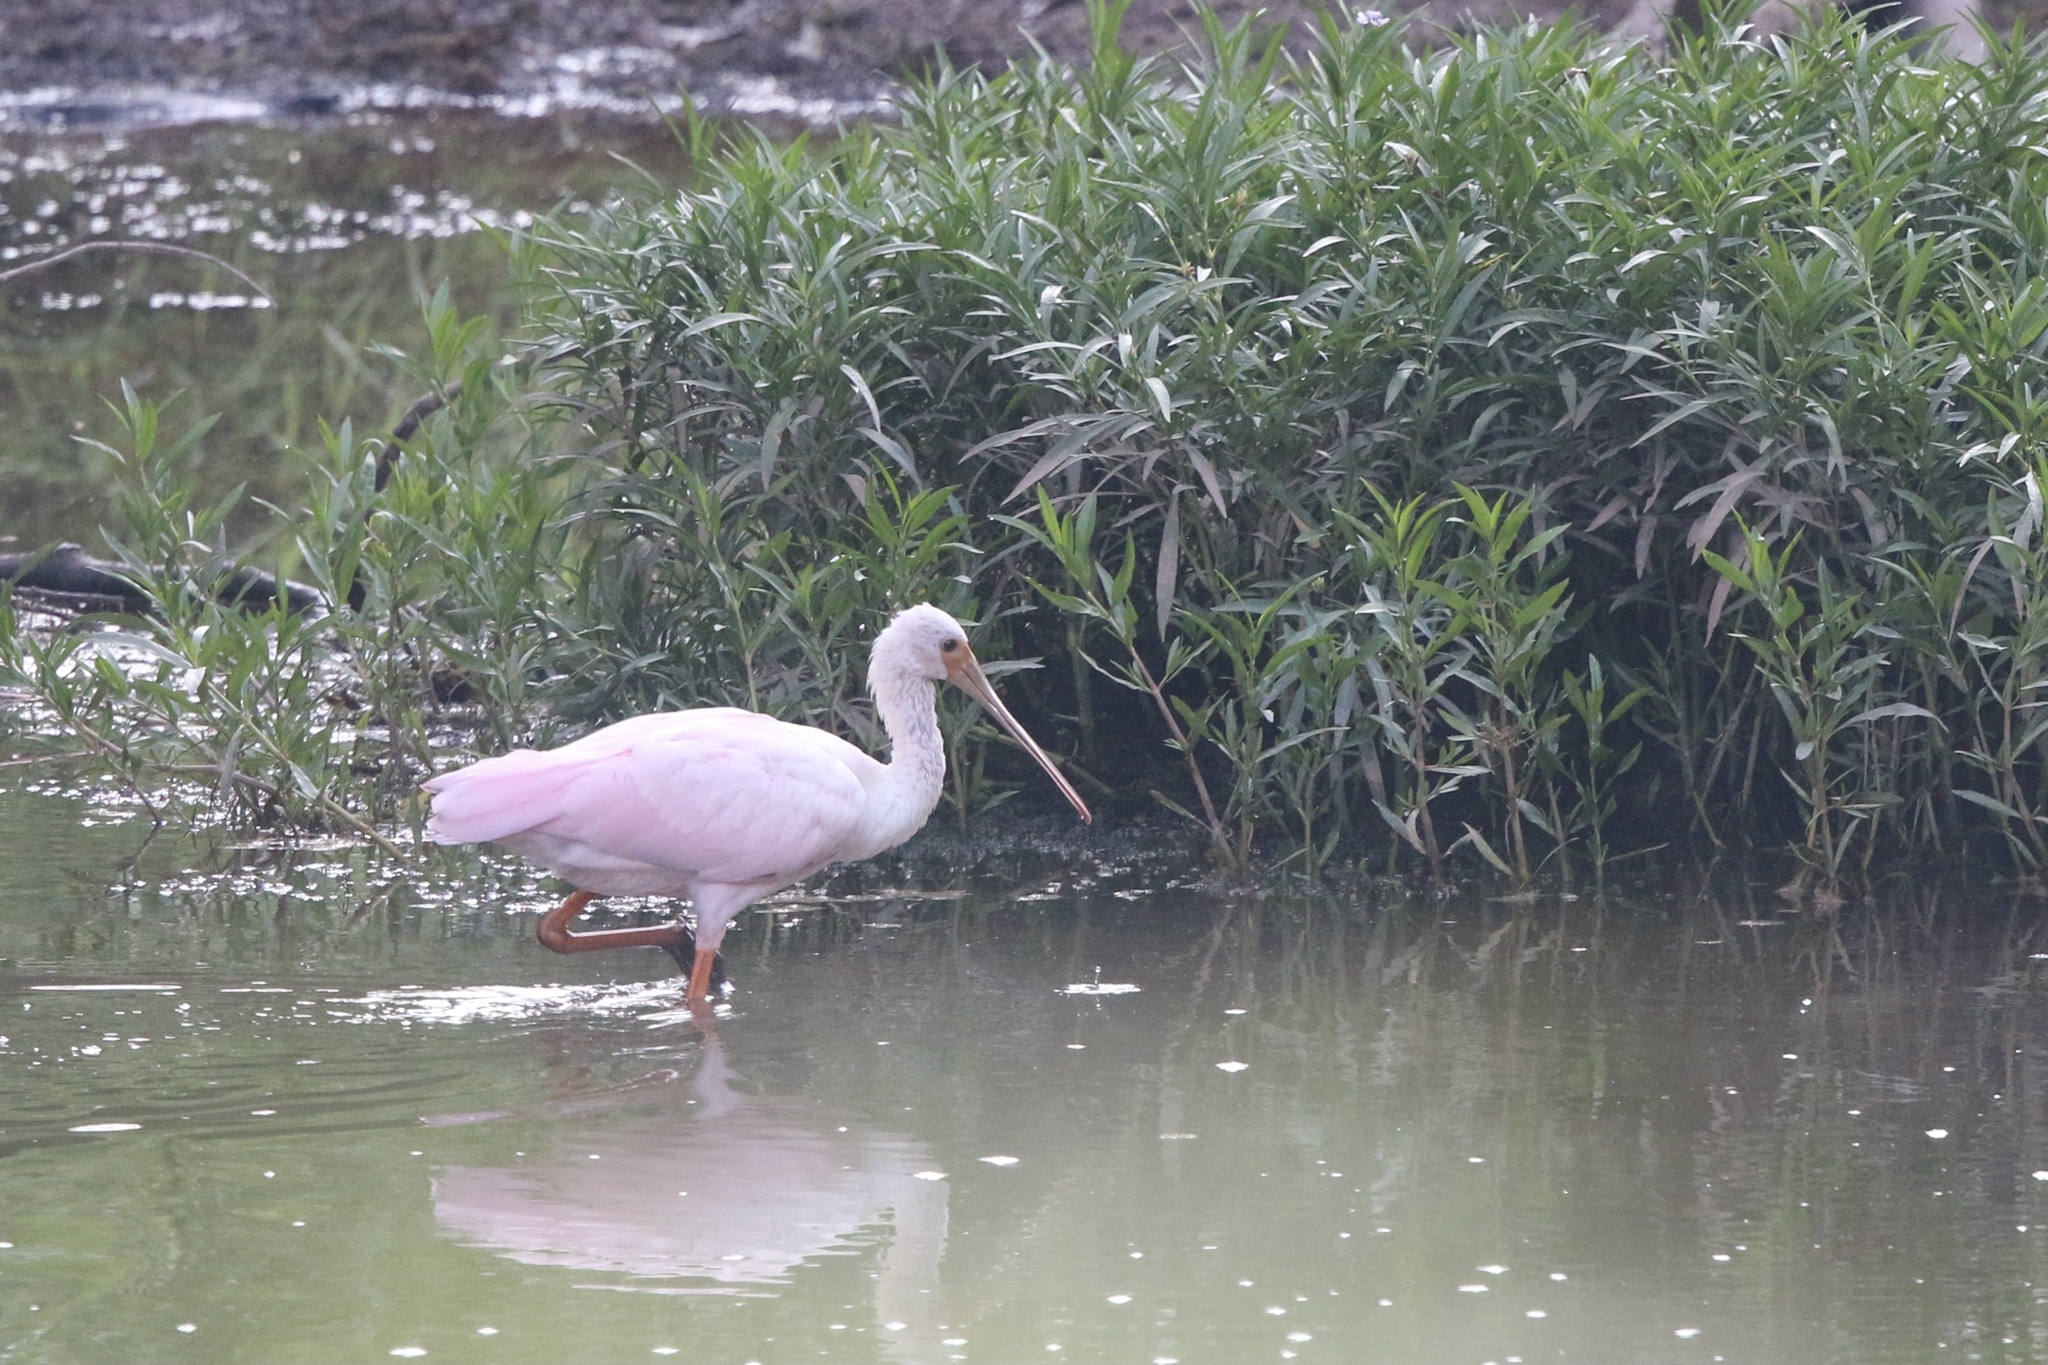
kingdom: Animalia
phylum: Chordata
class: Aves
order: Pelecaniformes
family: Threskiornithidae
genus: Platalea
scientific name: Platalea ajaja
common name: Roseate spoonbill
